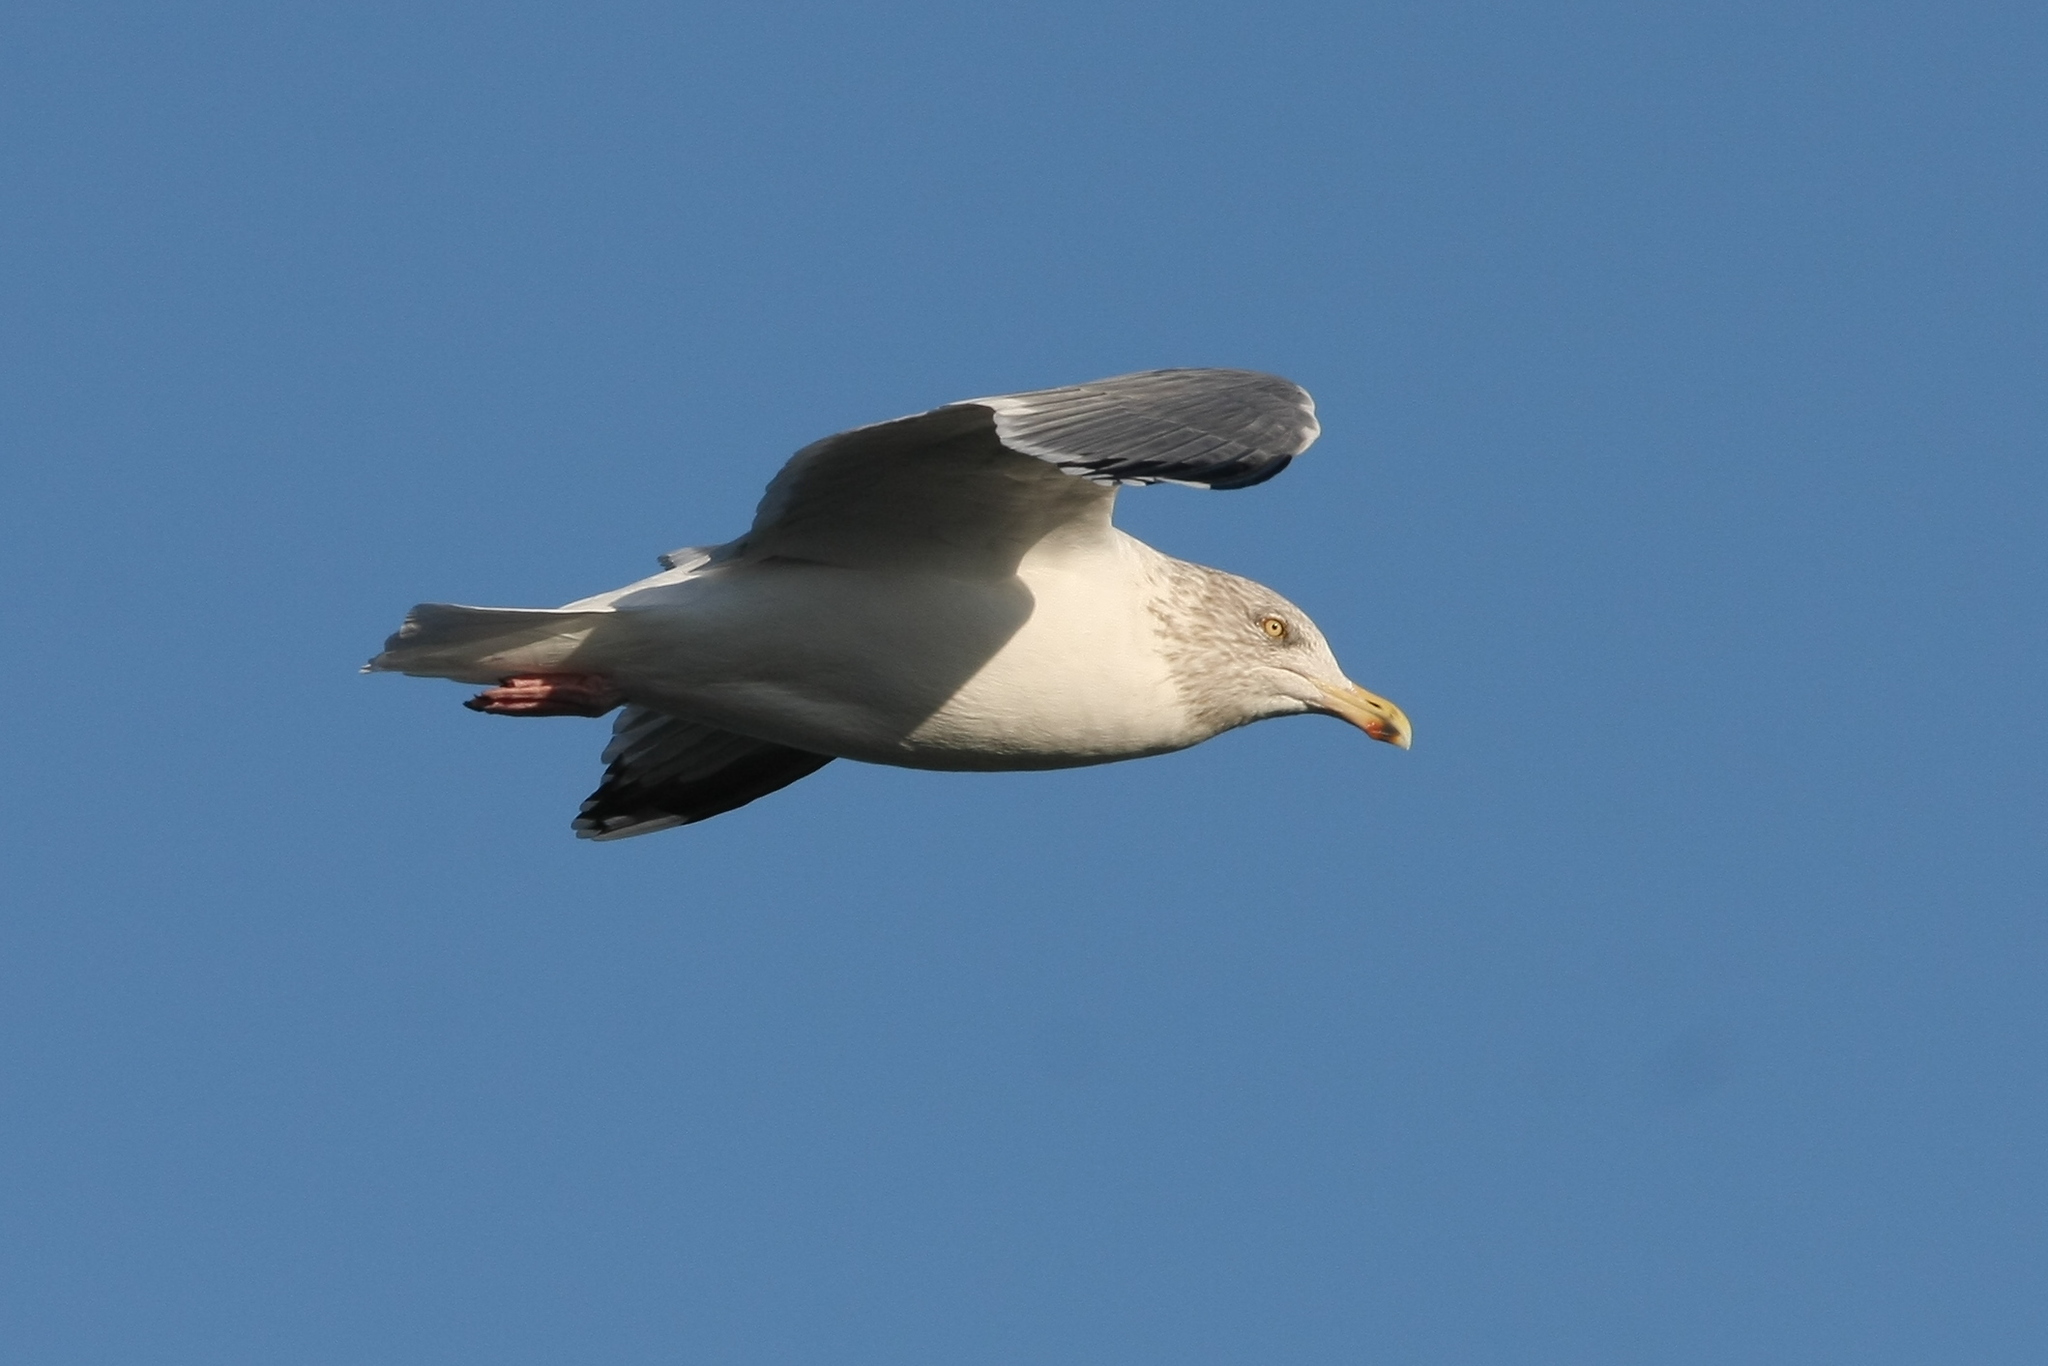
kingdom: Animalia
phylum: Chordata
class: Aves
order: Charadriiformes
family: Laridae
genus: Larus
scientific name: Larus argentatus
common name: Herring gull
